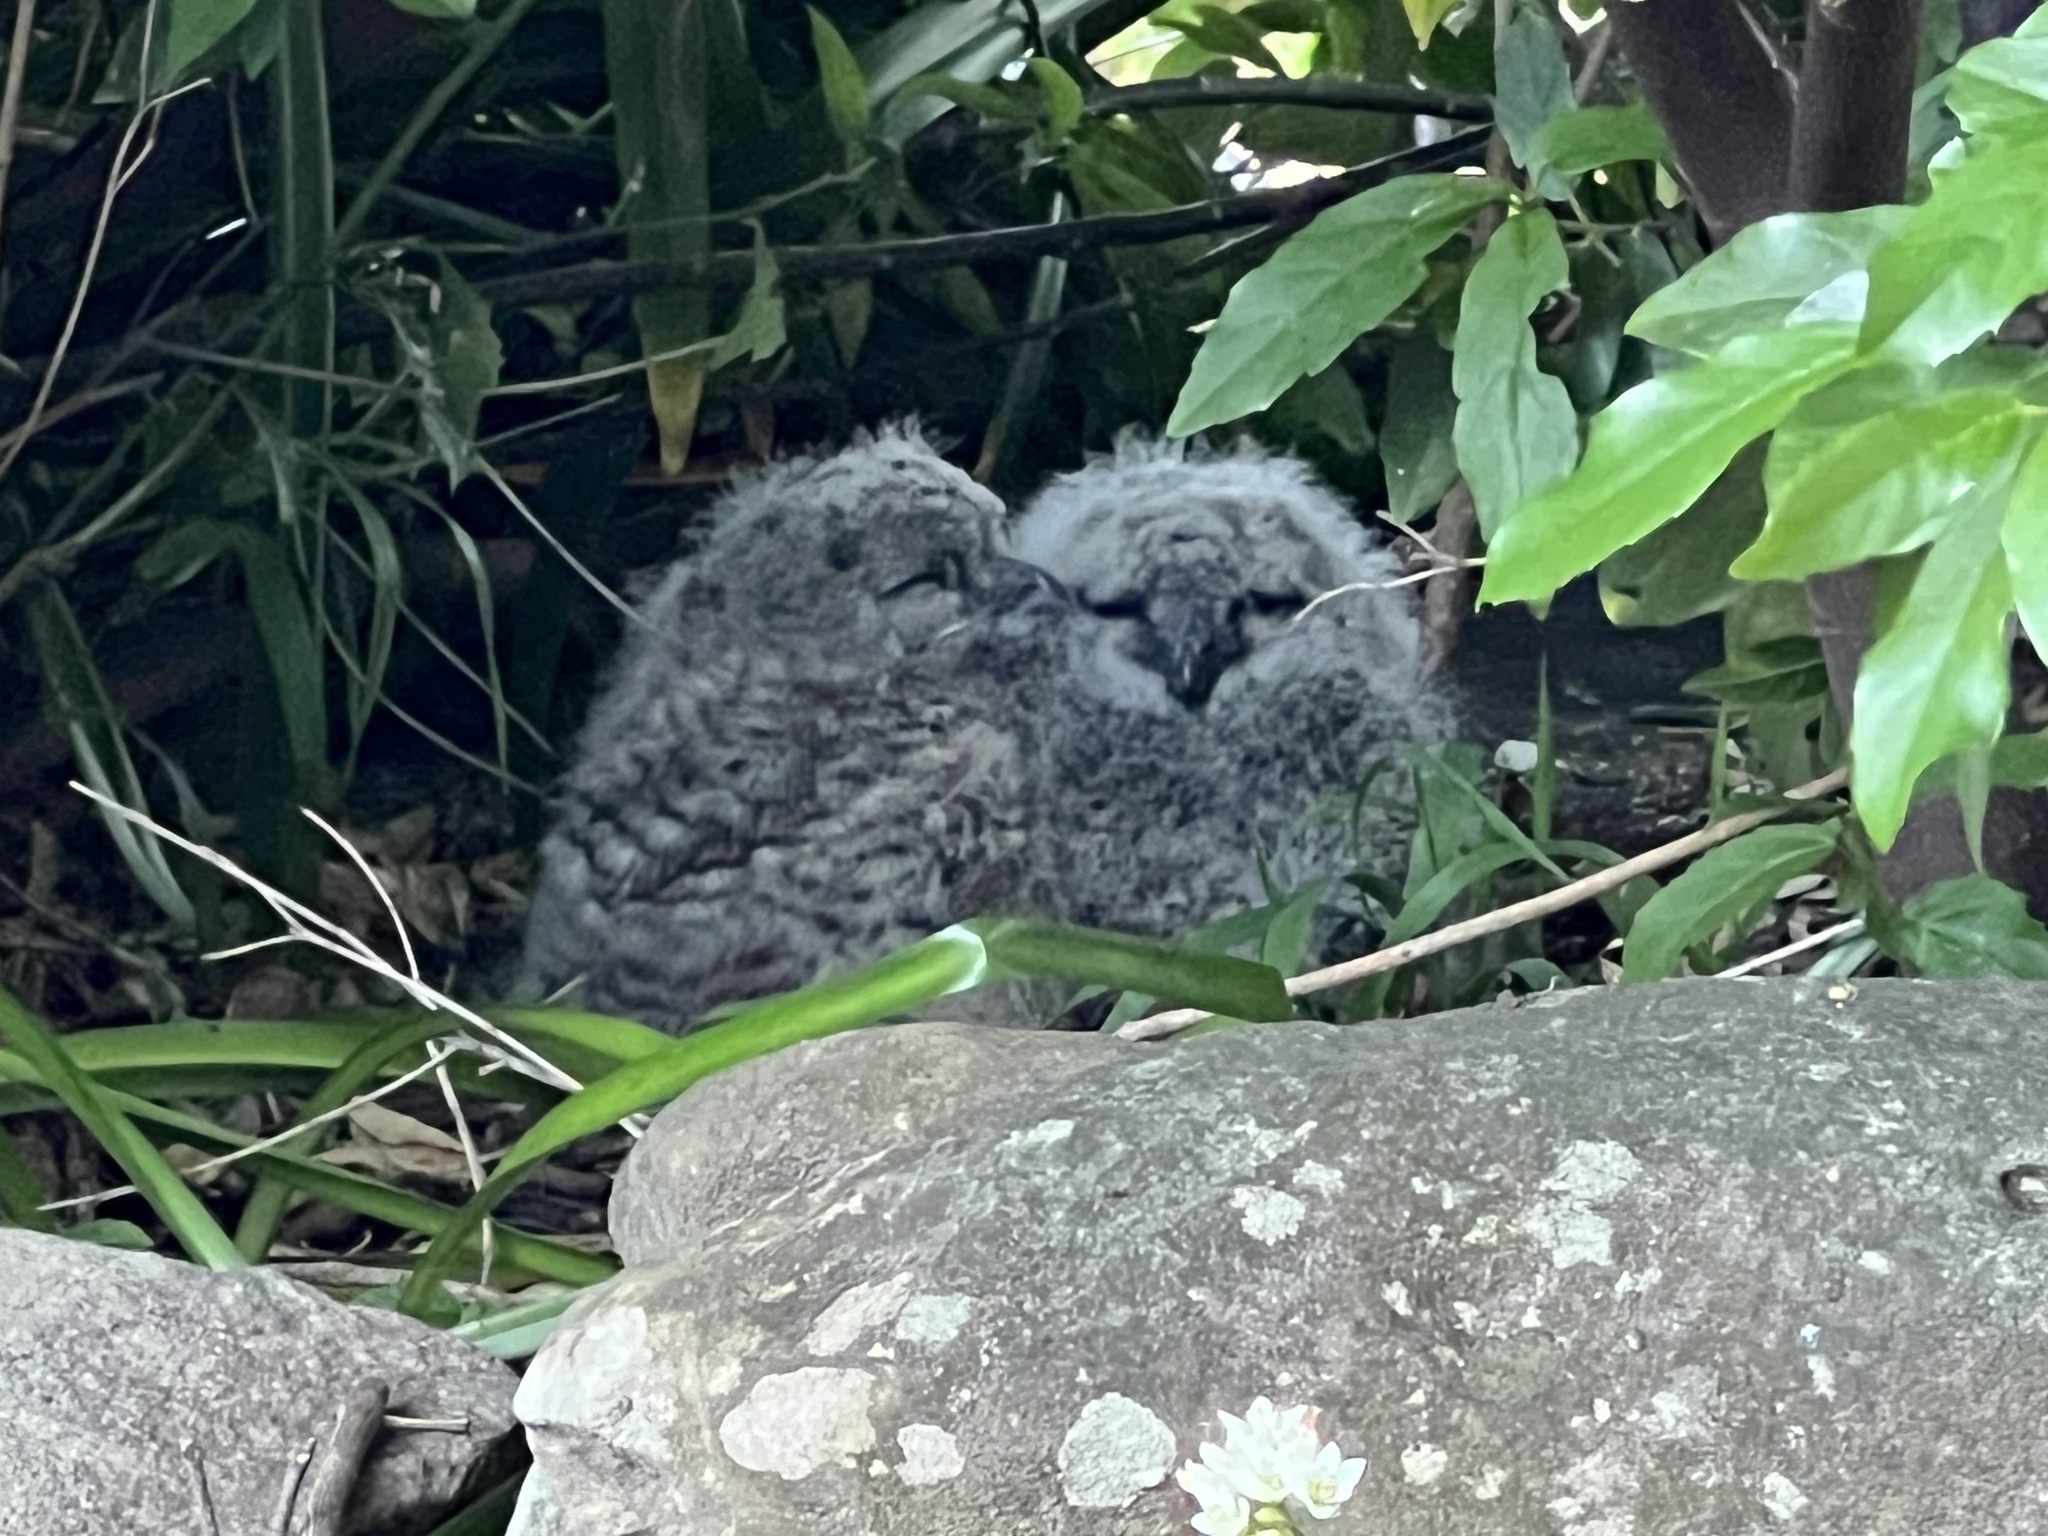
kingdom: Animalia
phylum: Chordata
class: Aves
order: Strigiformes
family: Strigidae
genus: Bubo
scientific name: Bubo africanus
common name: Spotted eagle-owl
